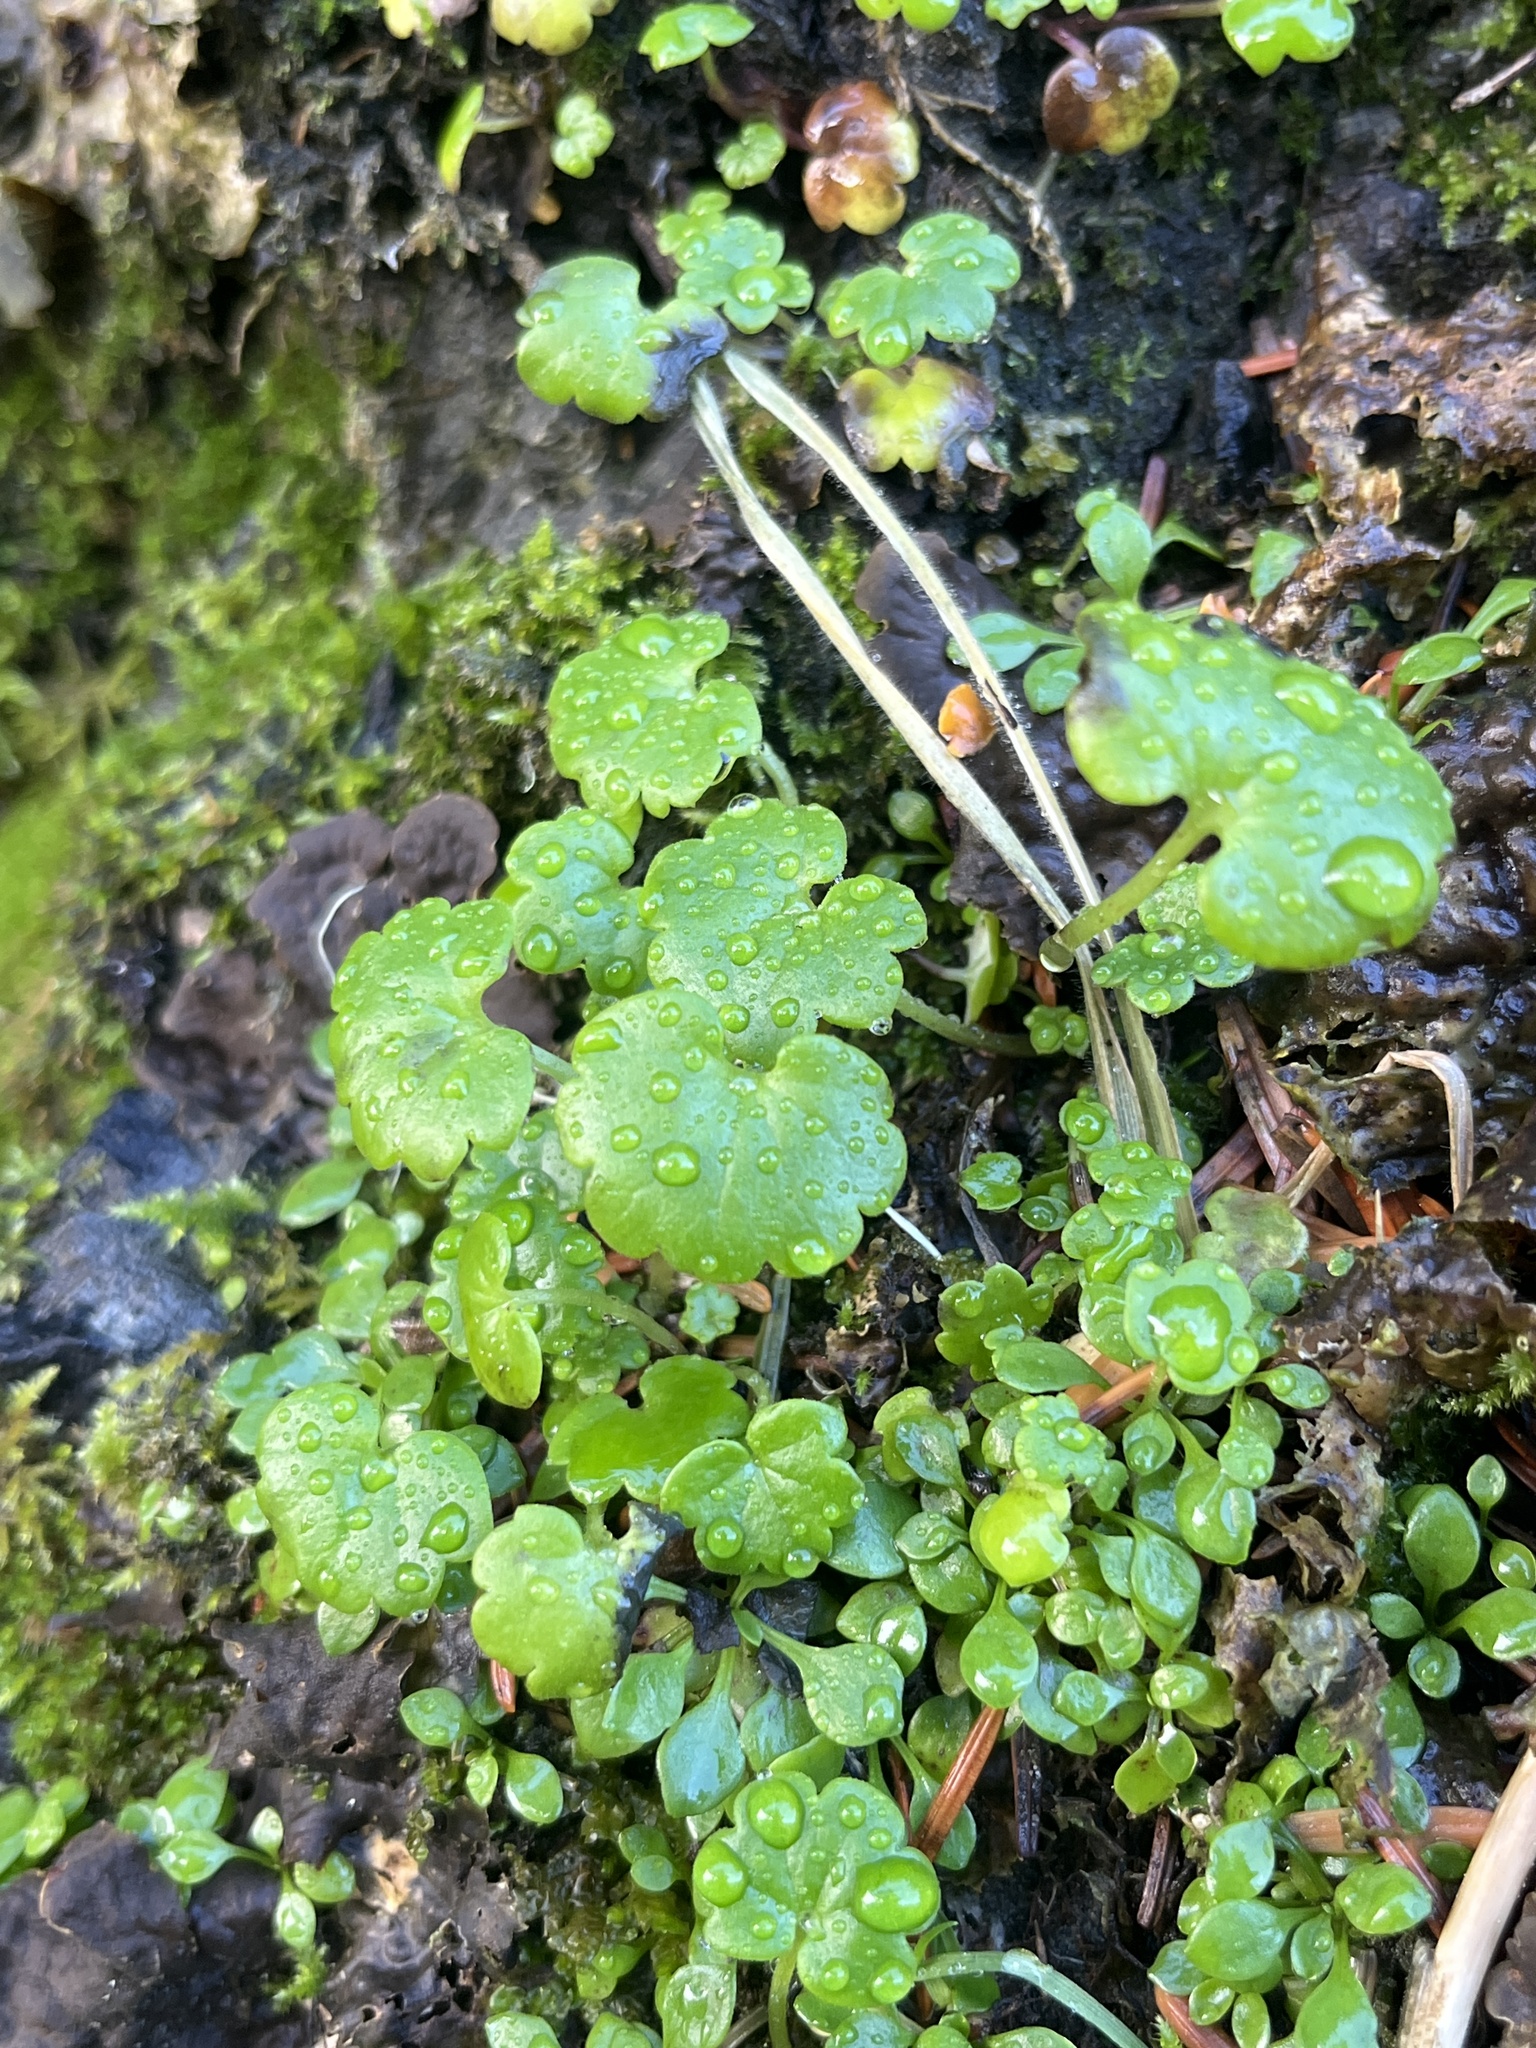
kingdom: Plantae
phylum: Tracheophyta
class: Magnoliopsida
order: Boraginales
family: Hydrophyllaceae
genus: Romanzoffia
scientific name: Romanzoffia tracyi
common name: Tracy's mistmaid
